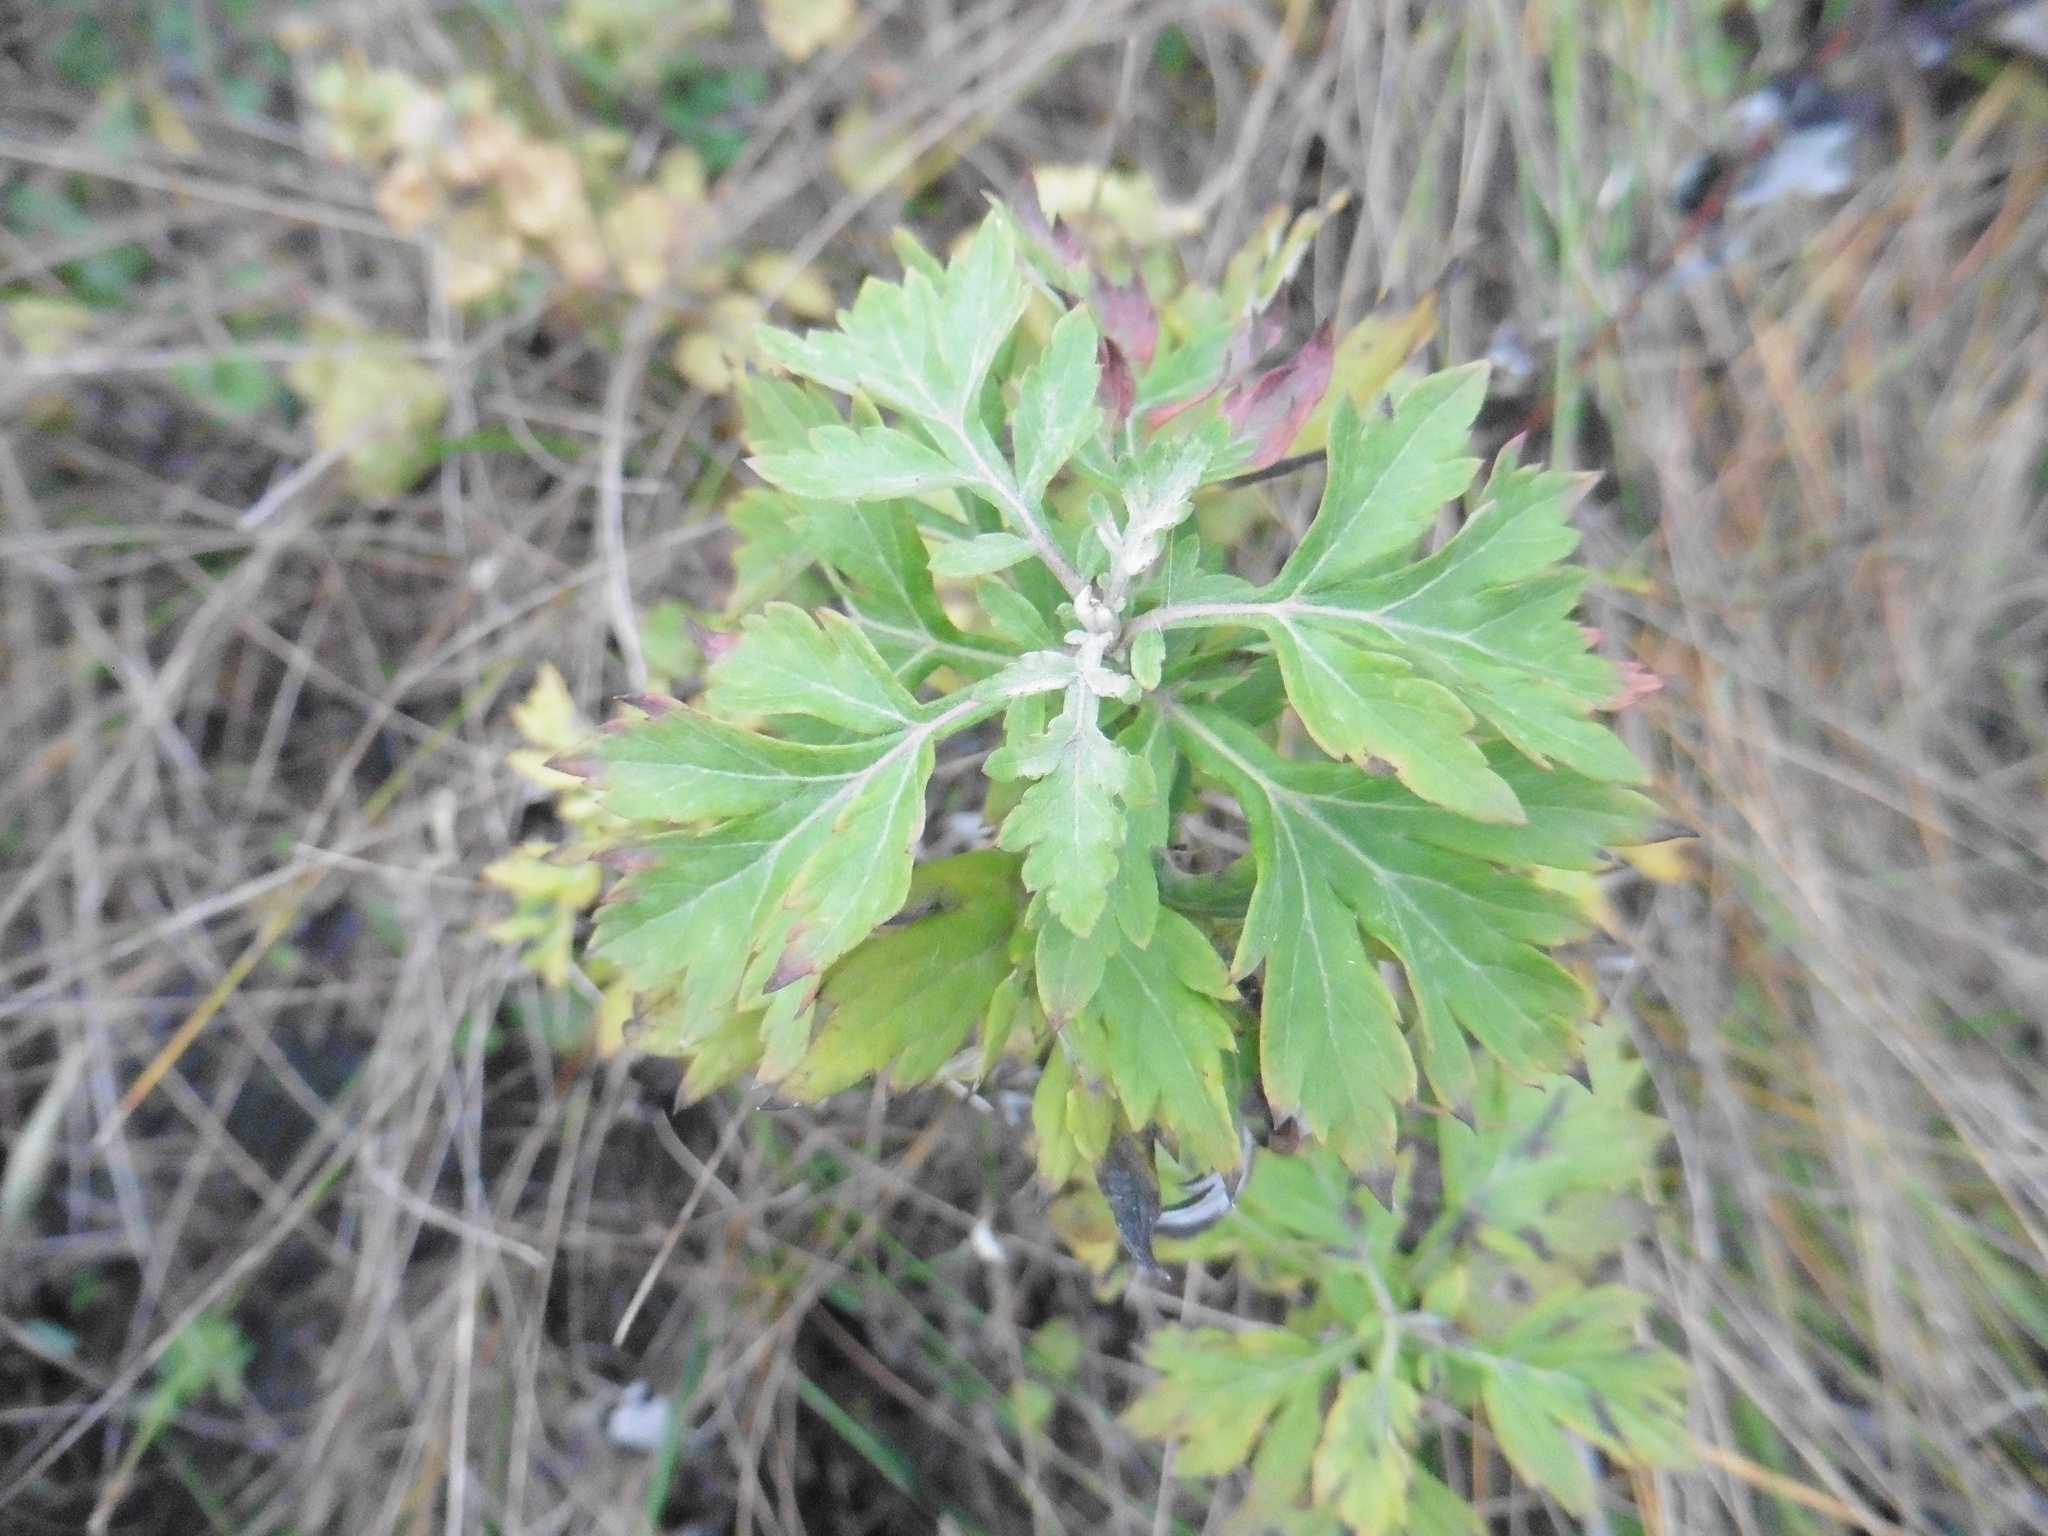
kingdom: Plantae
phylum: Tracheophyta
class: Magnoliopsida
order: Asterales
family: Asteraceae
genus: Artemisia
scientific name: Artemisia vulgaris
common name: Mugwort
